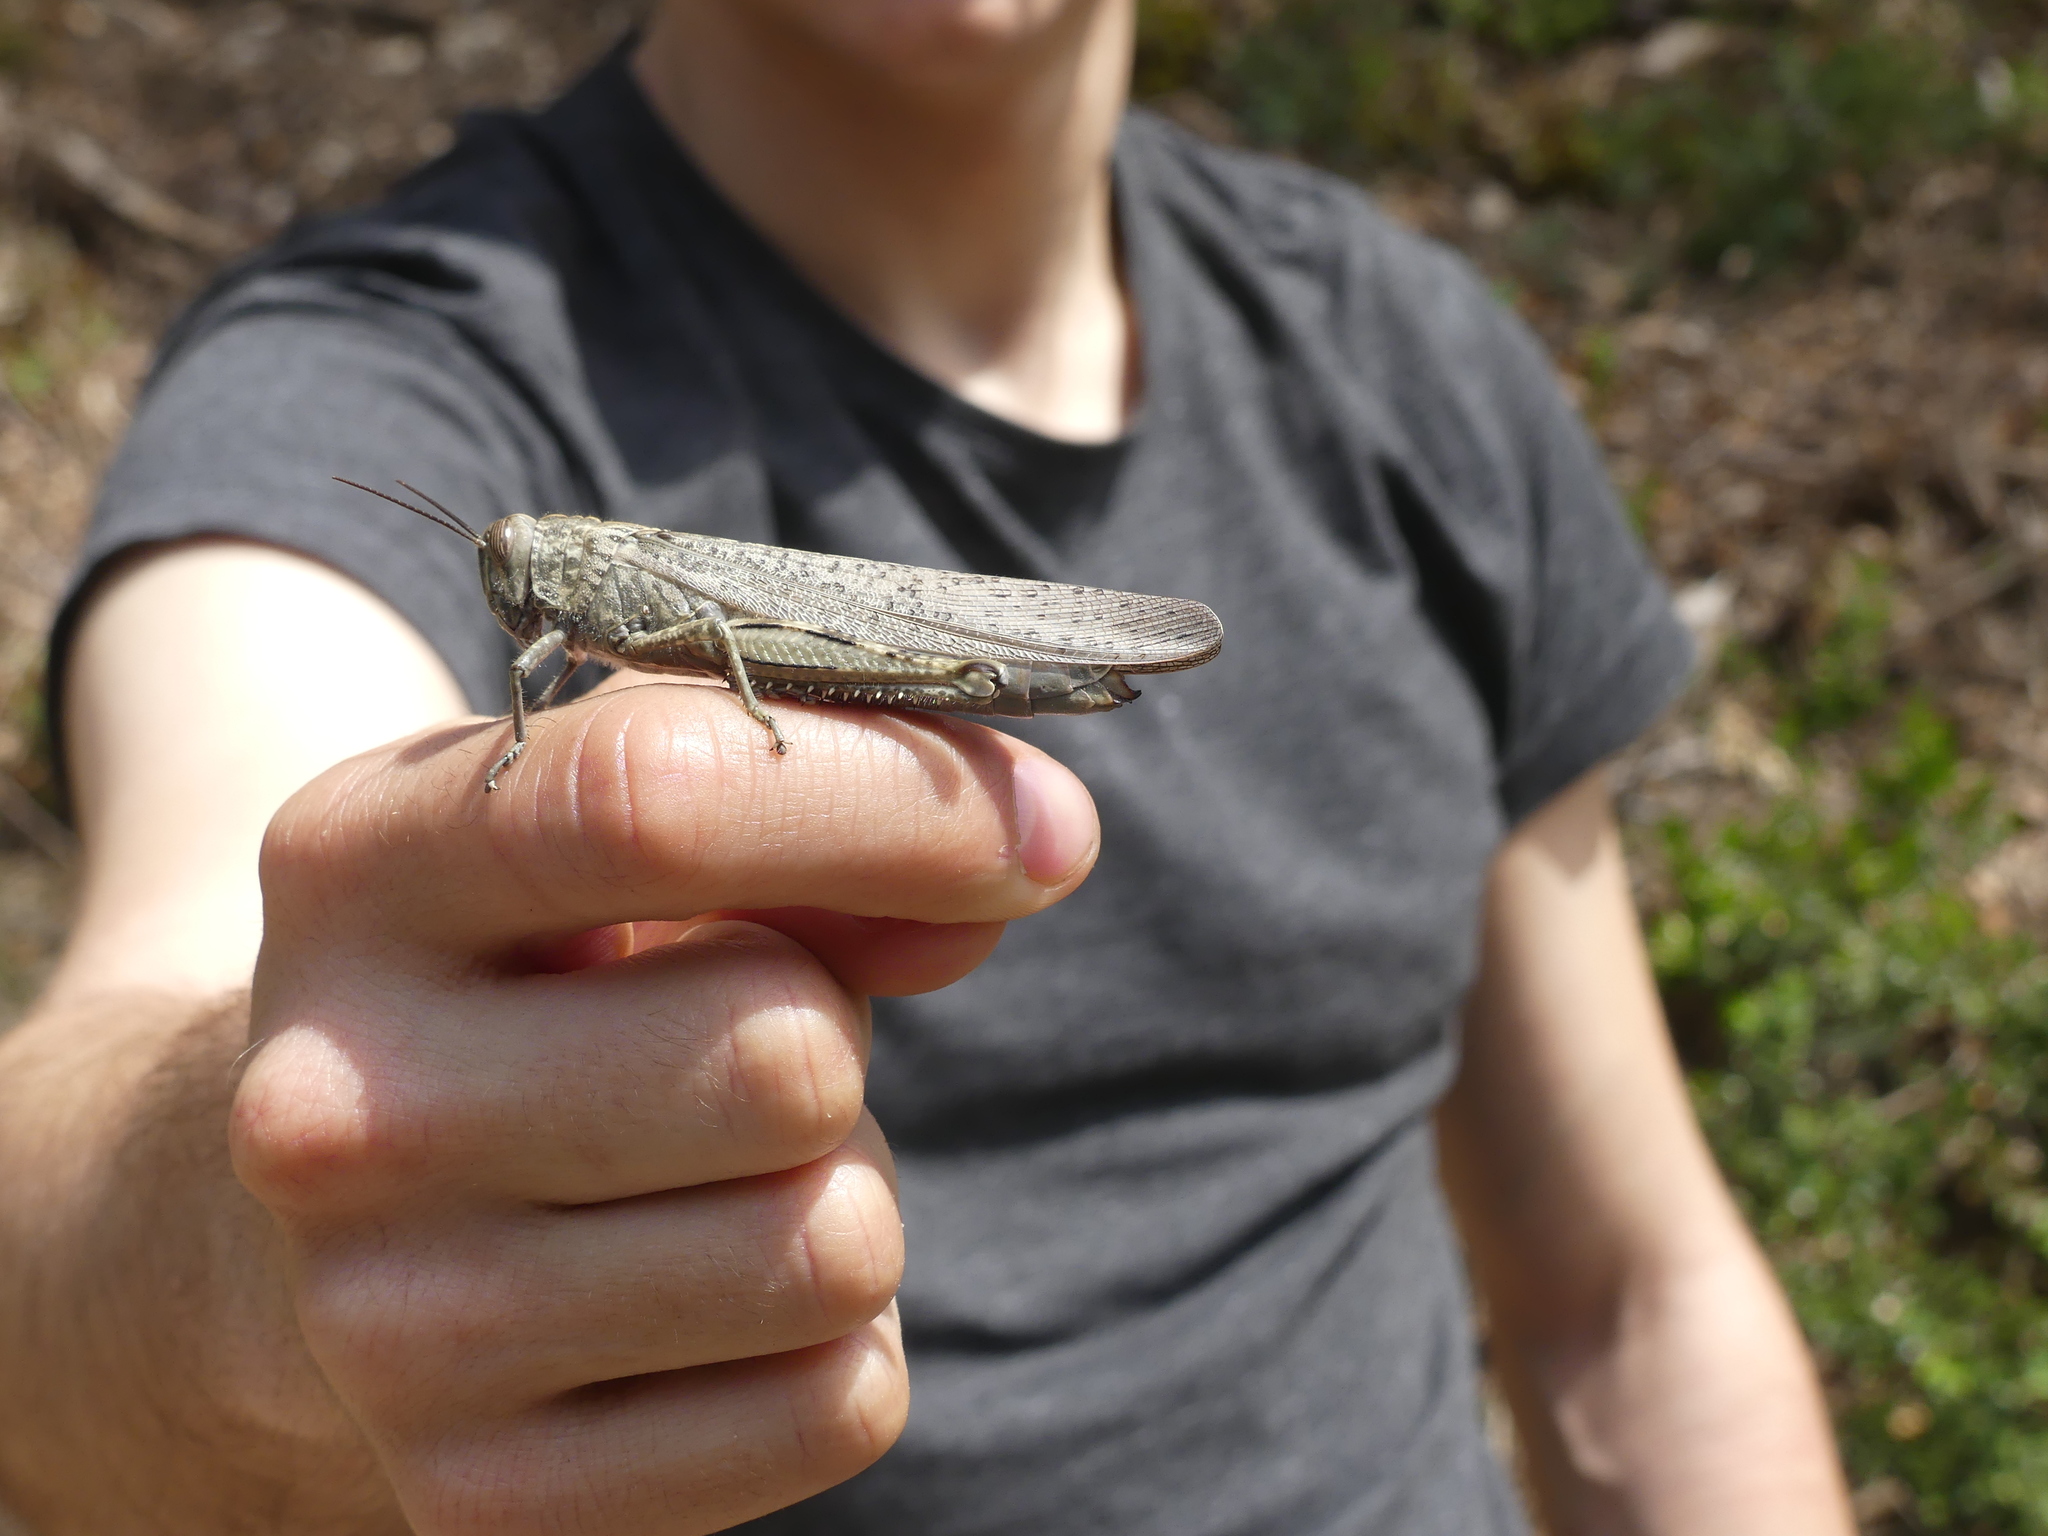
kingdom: Animalia
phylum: Arthropoda
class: Insecta
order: Orthoptera
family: Acrididae
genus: Anacridium
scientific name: Anacridium aegyptium
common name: Egyptian grasshopper
